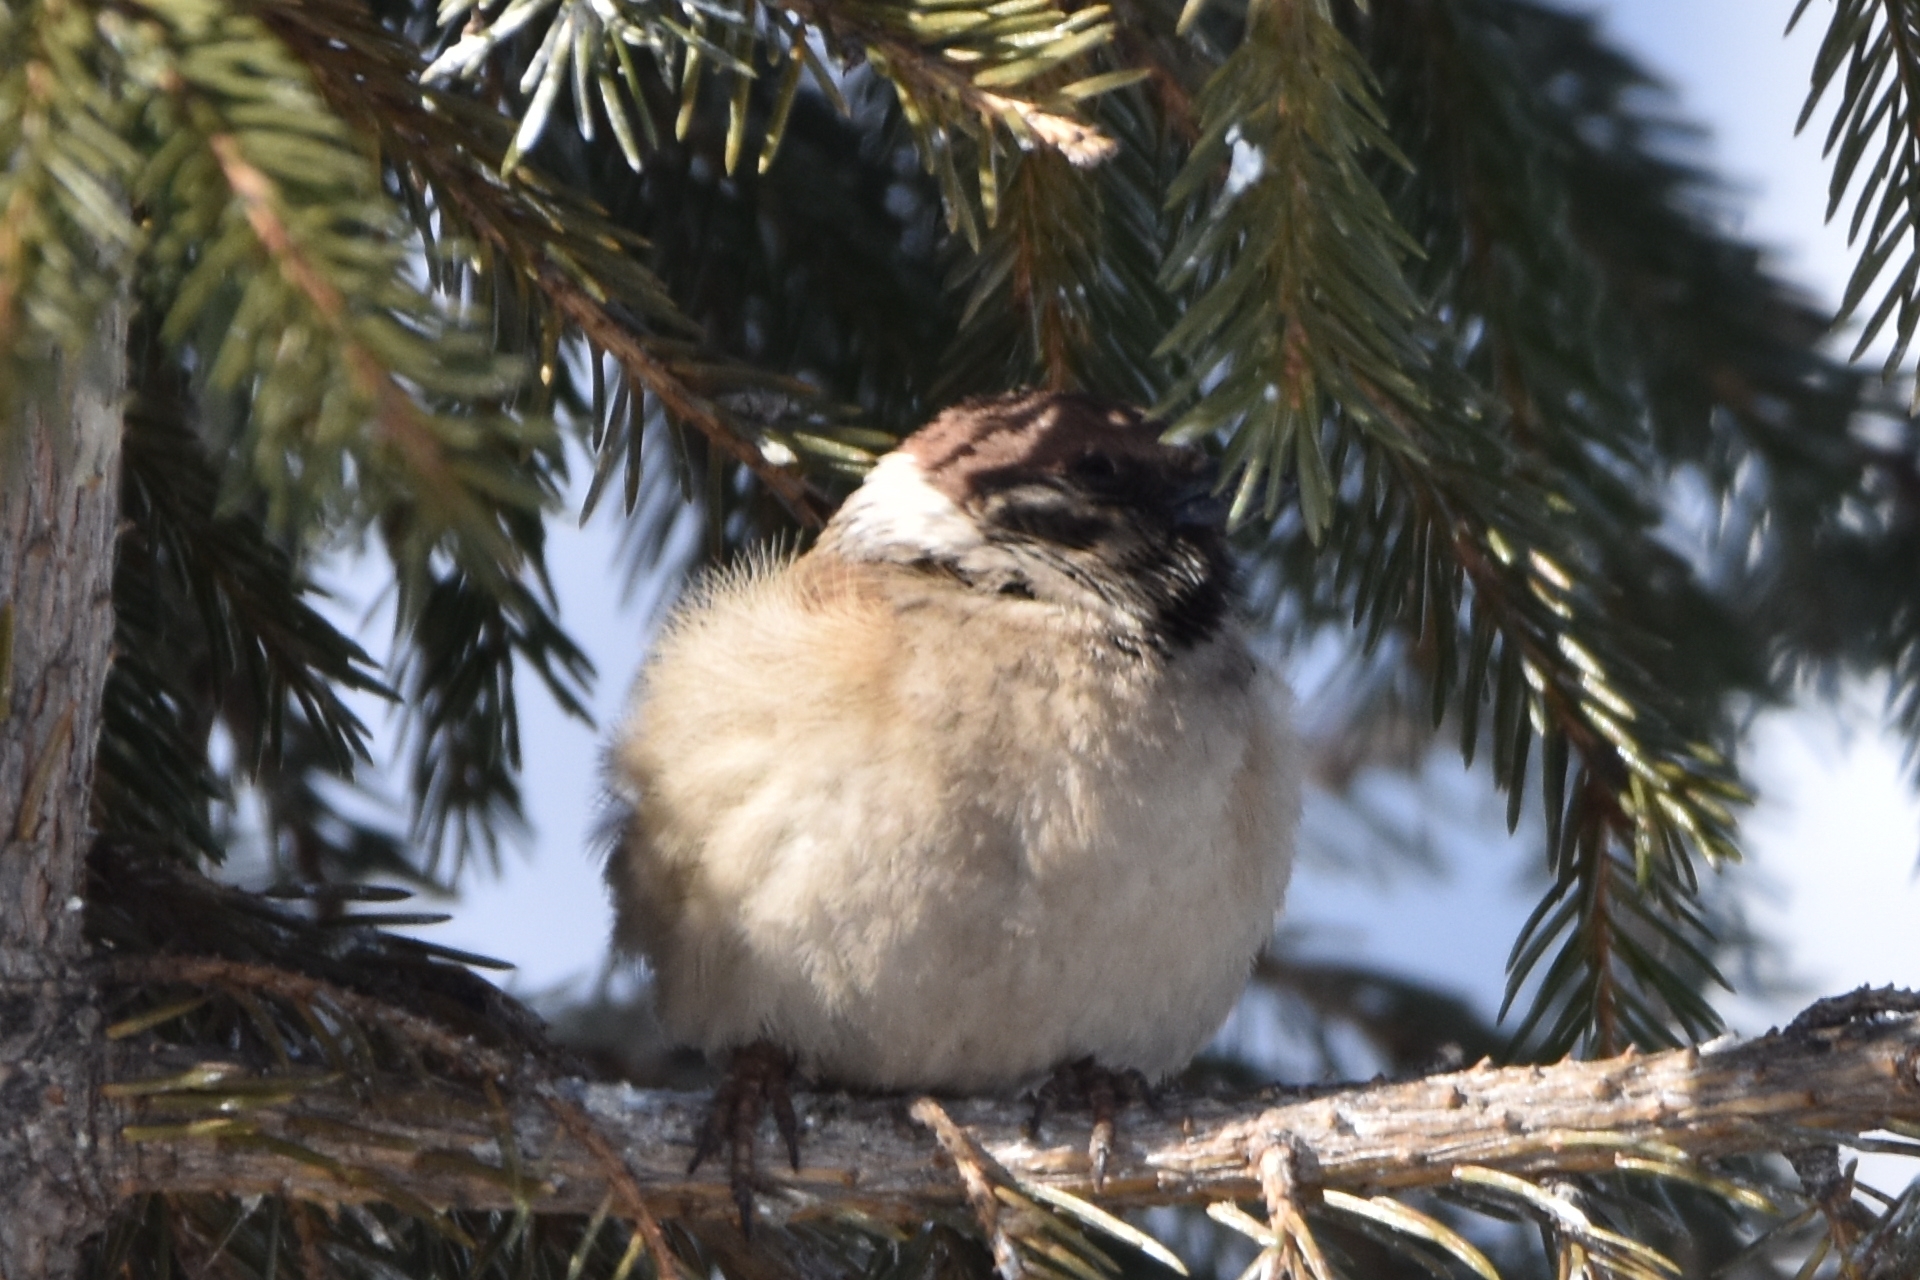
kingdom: Animalia
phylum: Chordata
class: Aves
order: Passeriformes
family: Passeridae
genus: Passer
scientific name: Passer montanus
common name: Eurasian tree sparrow
